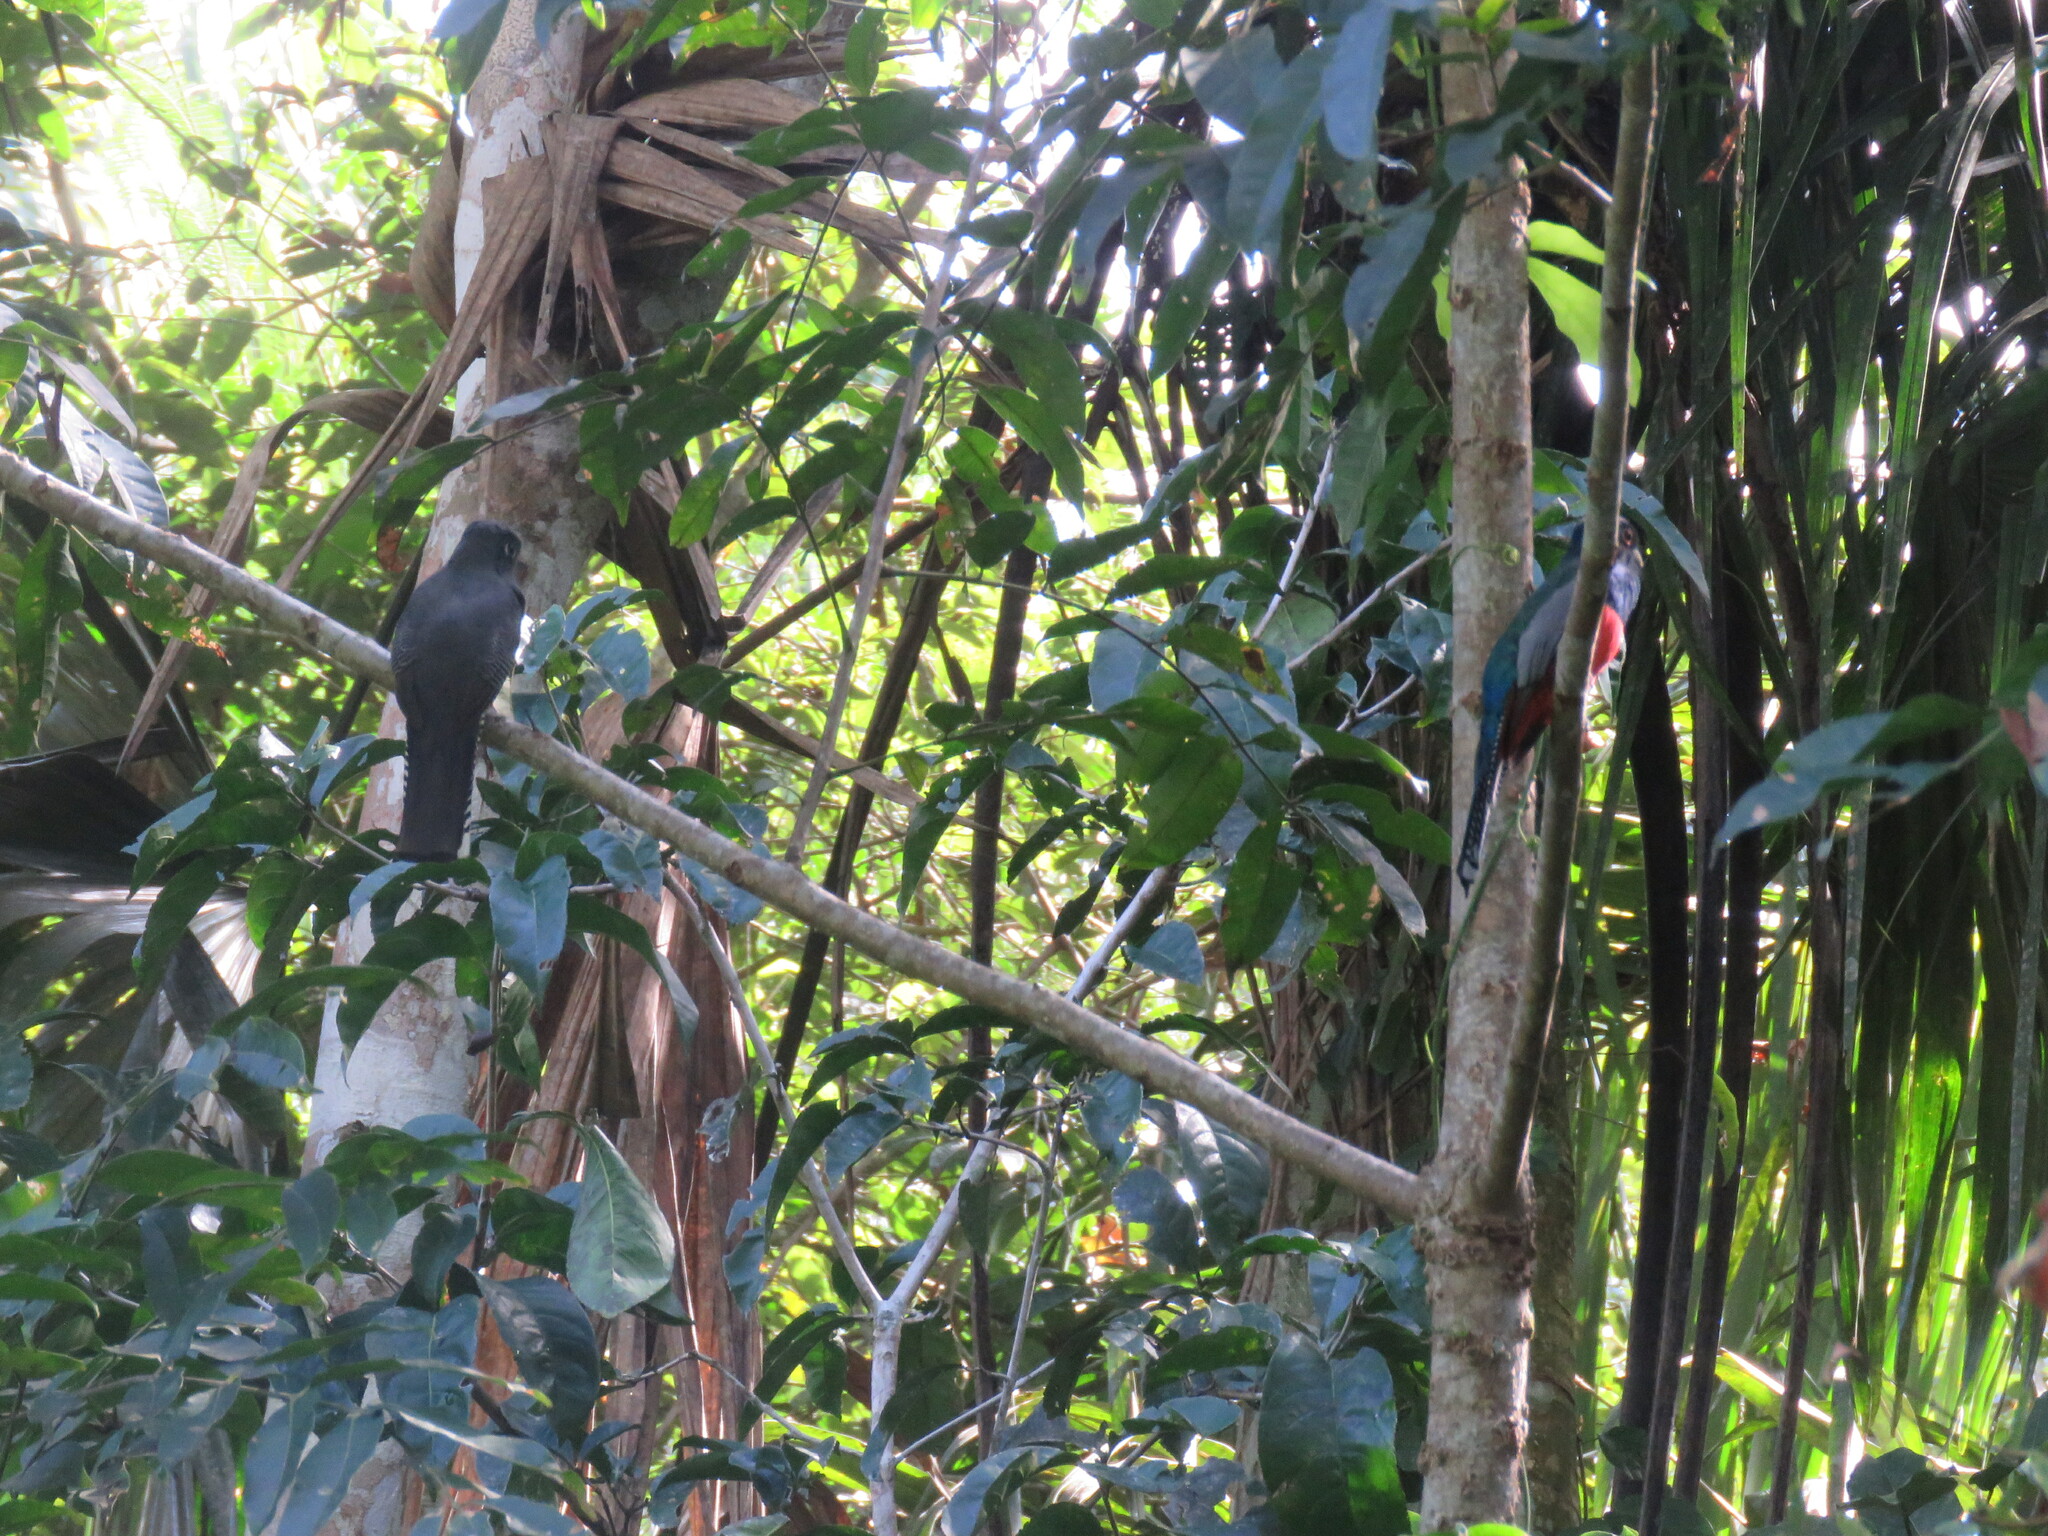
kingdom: Animalia
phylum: Chordata
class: Aves
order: Trogoniformes
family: Trogonidae
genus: Trogon
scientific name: Trogon curucui
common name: Blue-crowned trogon
